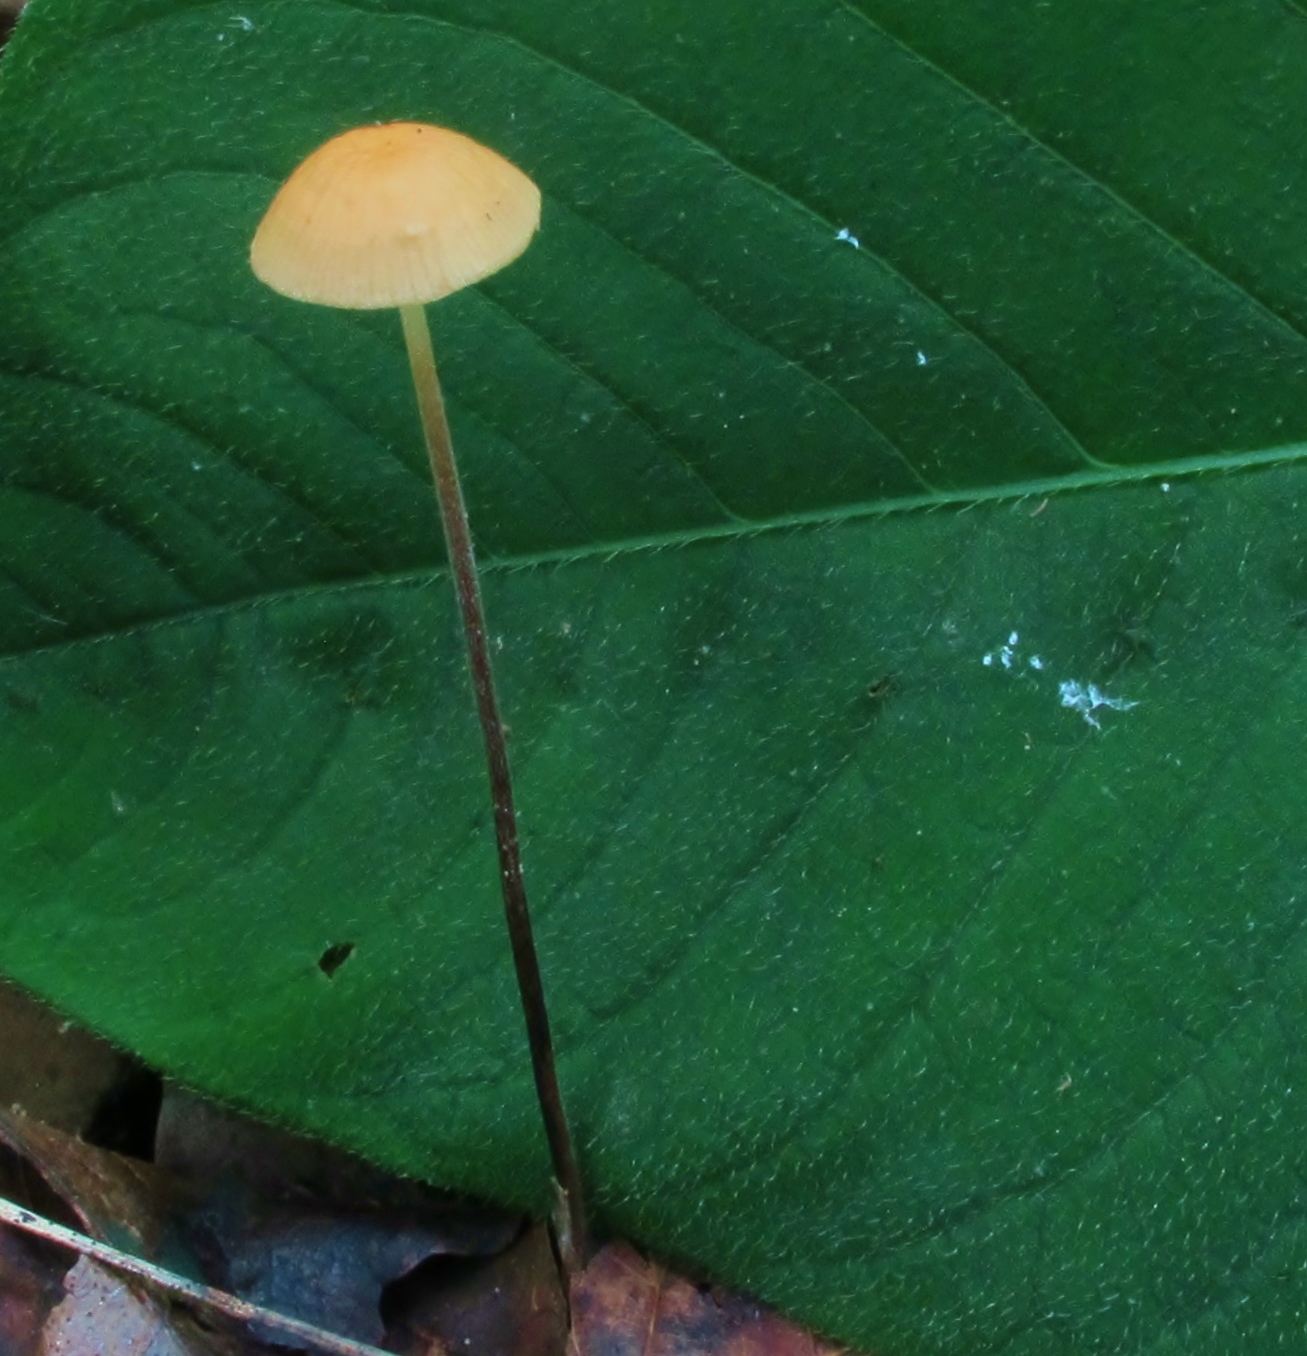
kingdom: Fungi
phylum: Basidiomycota
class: Agaricomycetes
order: Agaricales
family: Physalacriaceae
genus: Rhizomarasmius
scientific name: Rhizomarasmius pyrrhocephalus
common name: Hairy long stem marasmius
